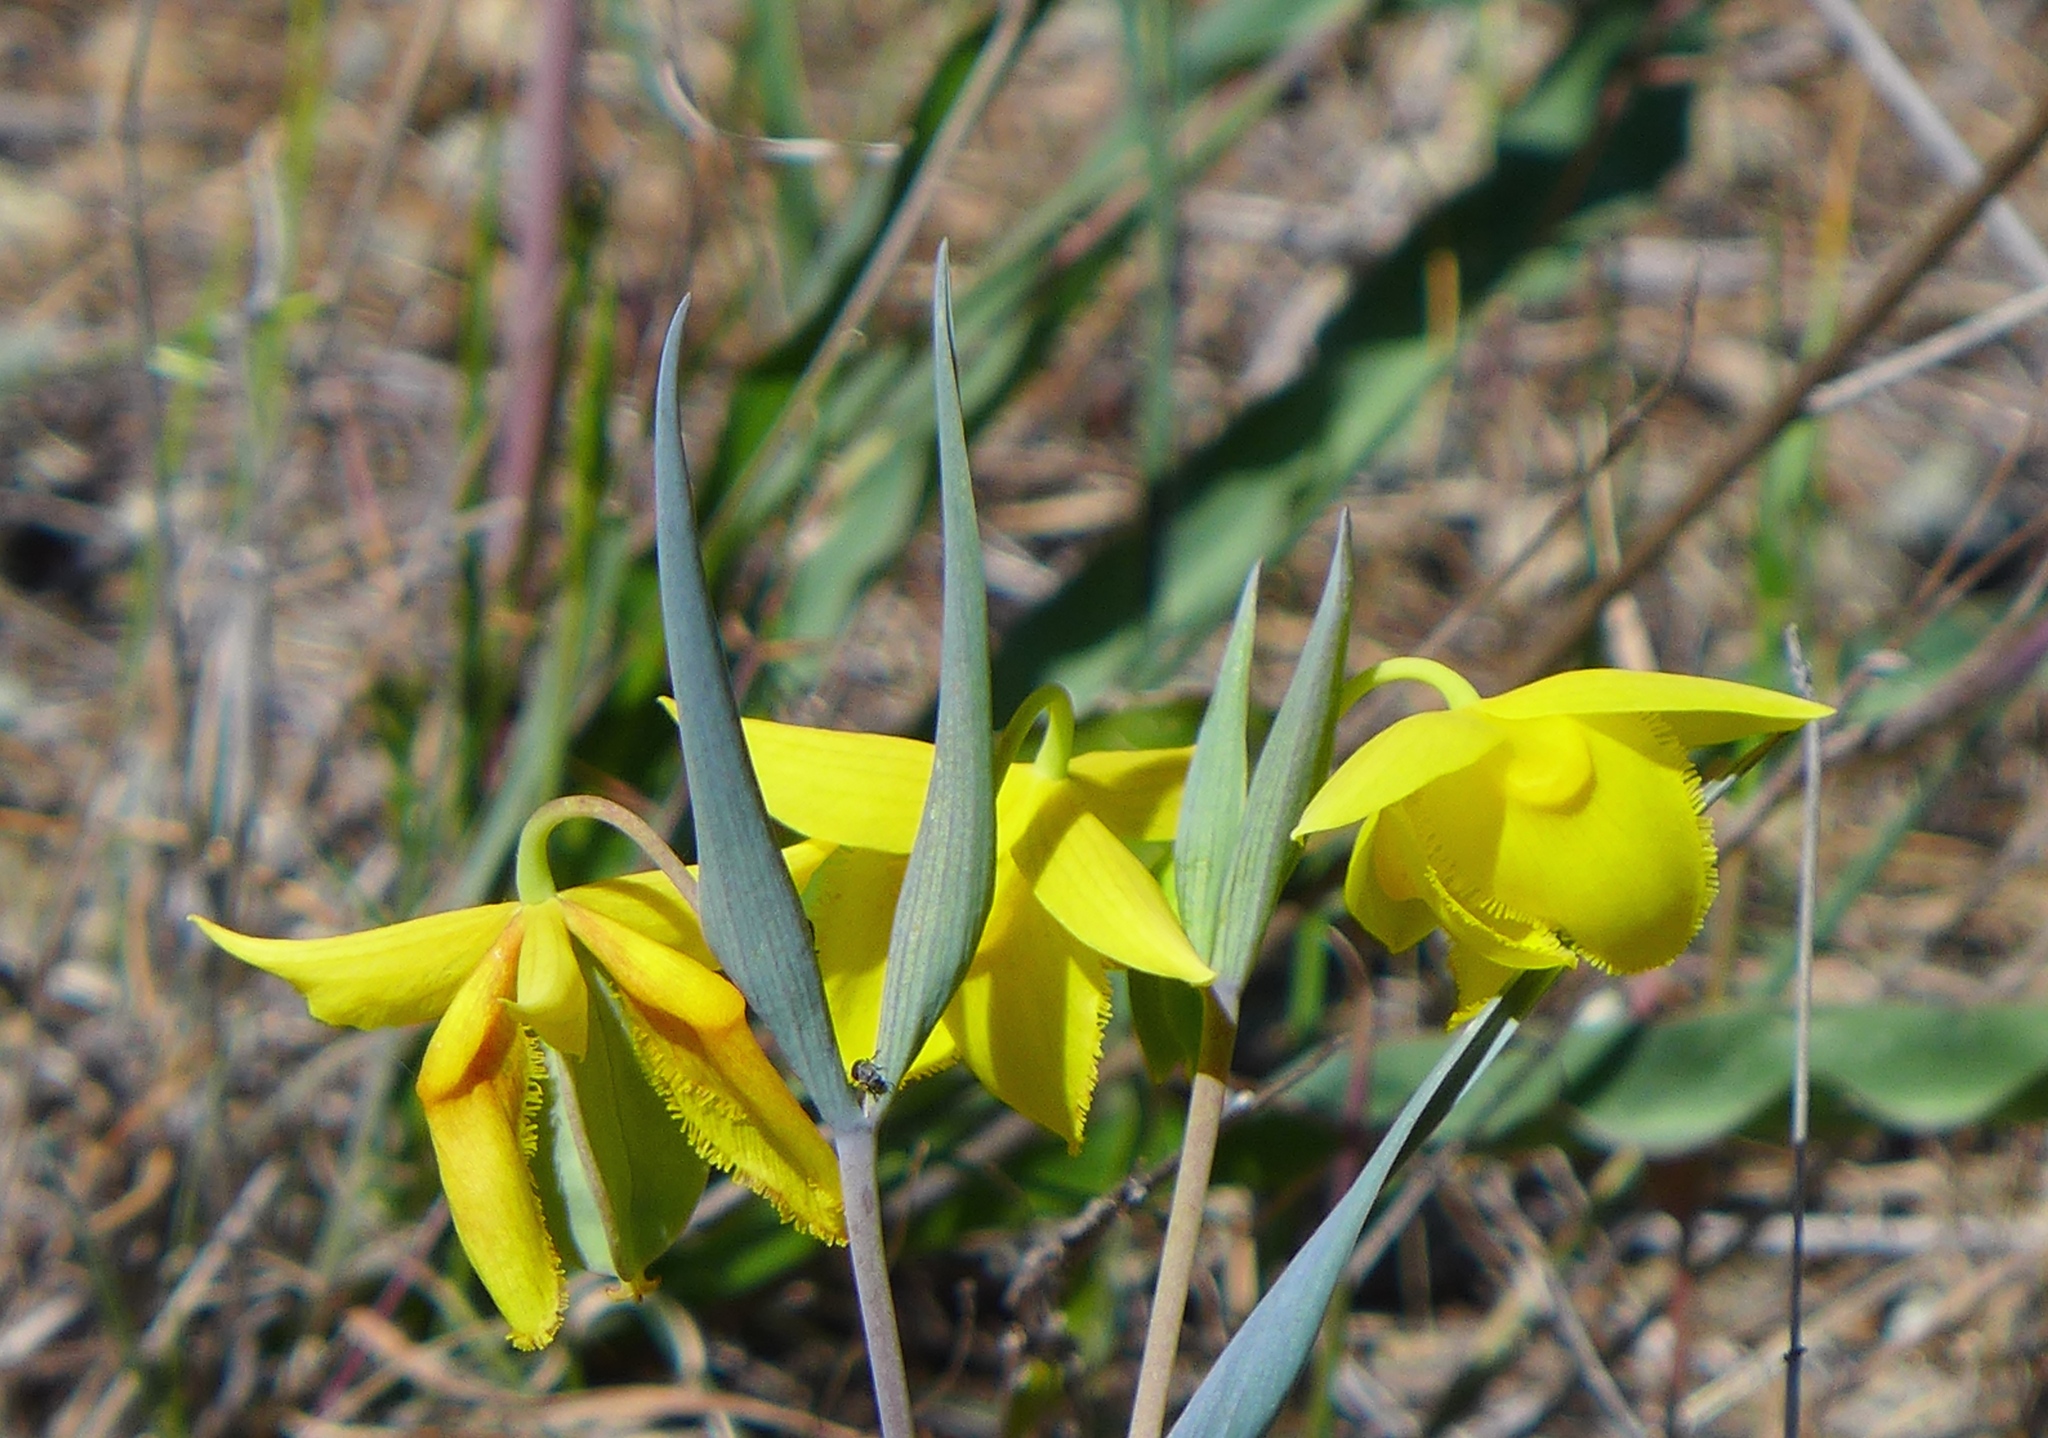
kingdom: Plantae
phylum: Tracheophyta
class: Liliopsida
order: Liliales
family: Liliaceae
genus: Calochortus
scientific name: Calochortus amabilis
